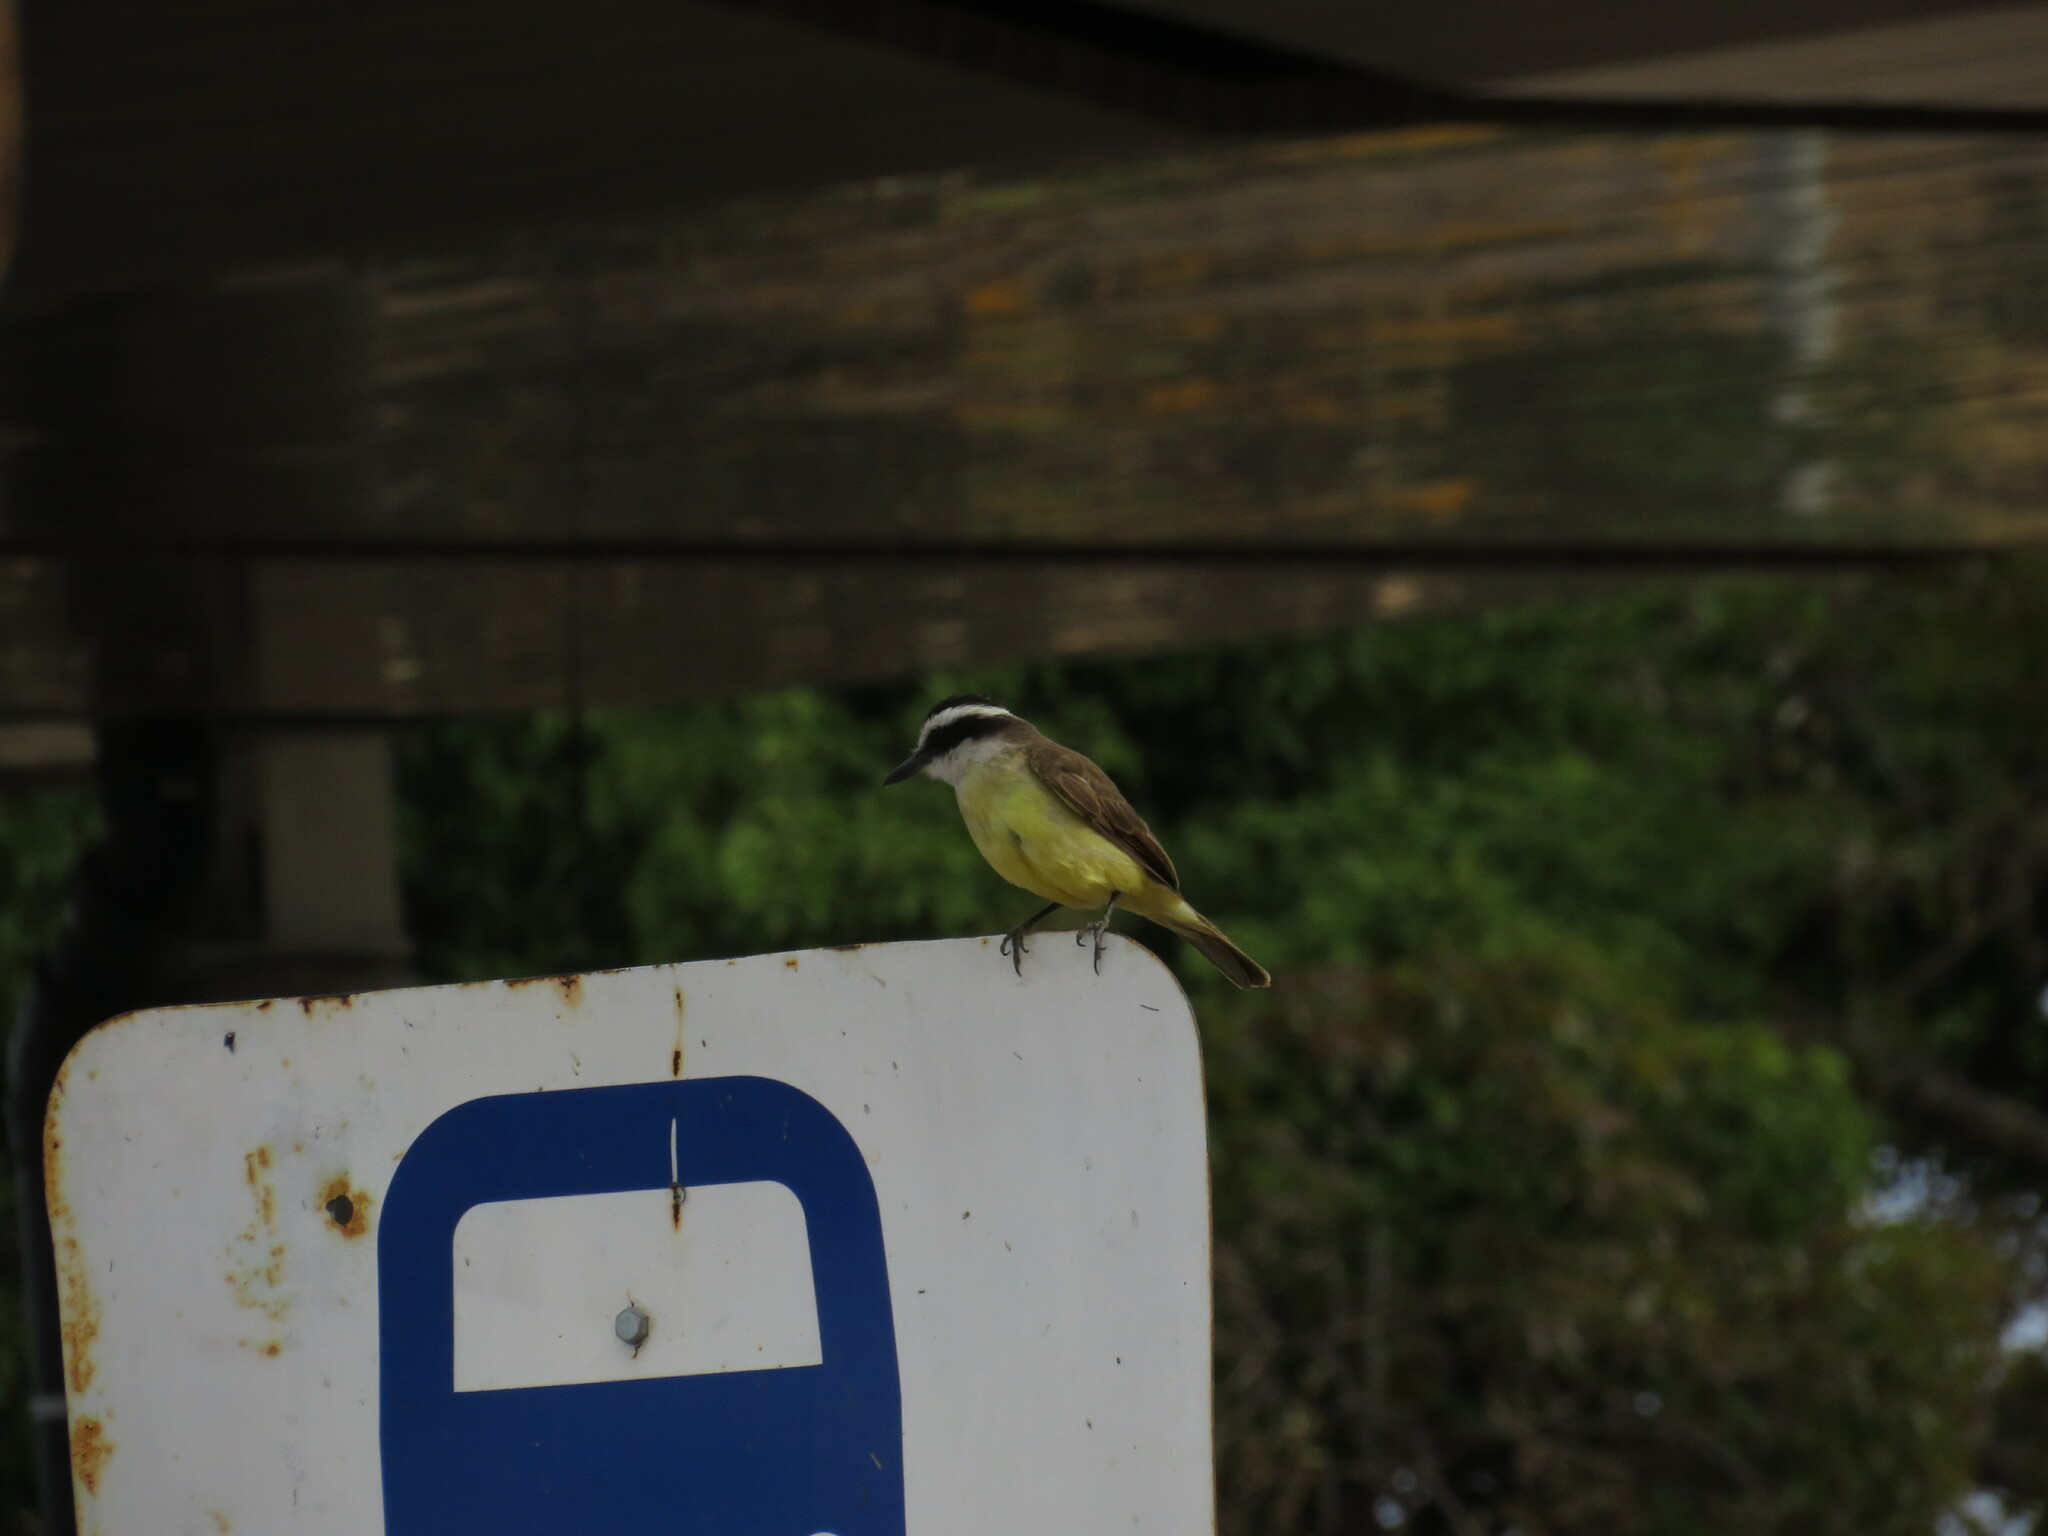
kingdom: Animalia
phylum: Chordata
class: Aves
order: Passeriformes
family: Tyrannidae
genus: Pitangus
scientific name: Pitangus sulphuratus
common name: Great kiskadee
